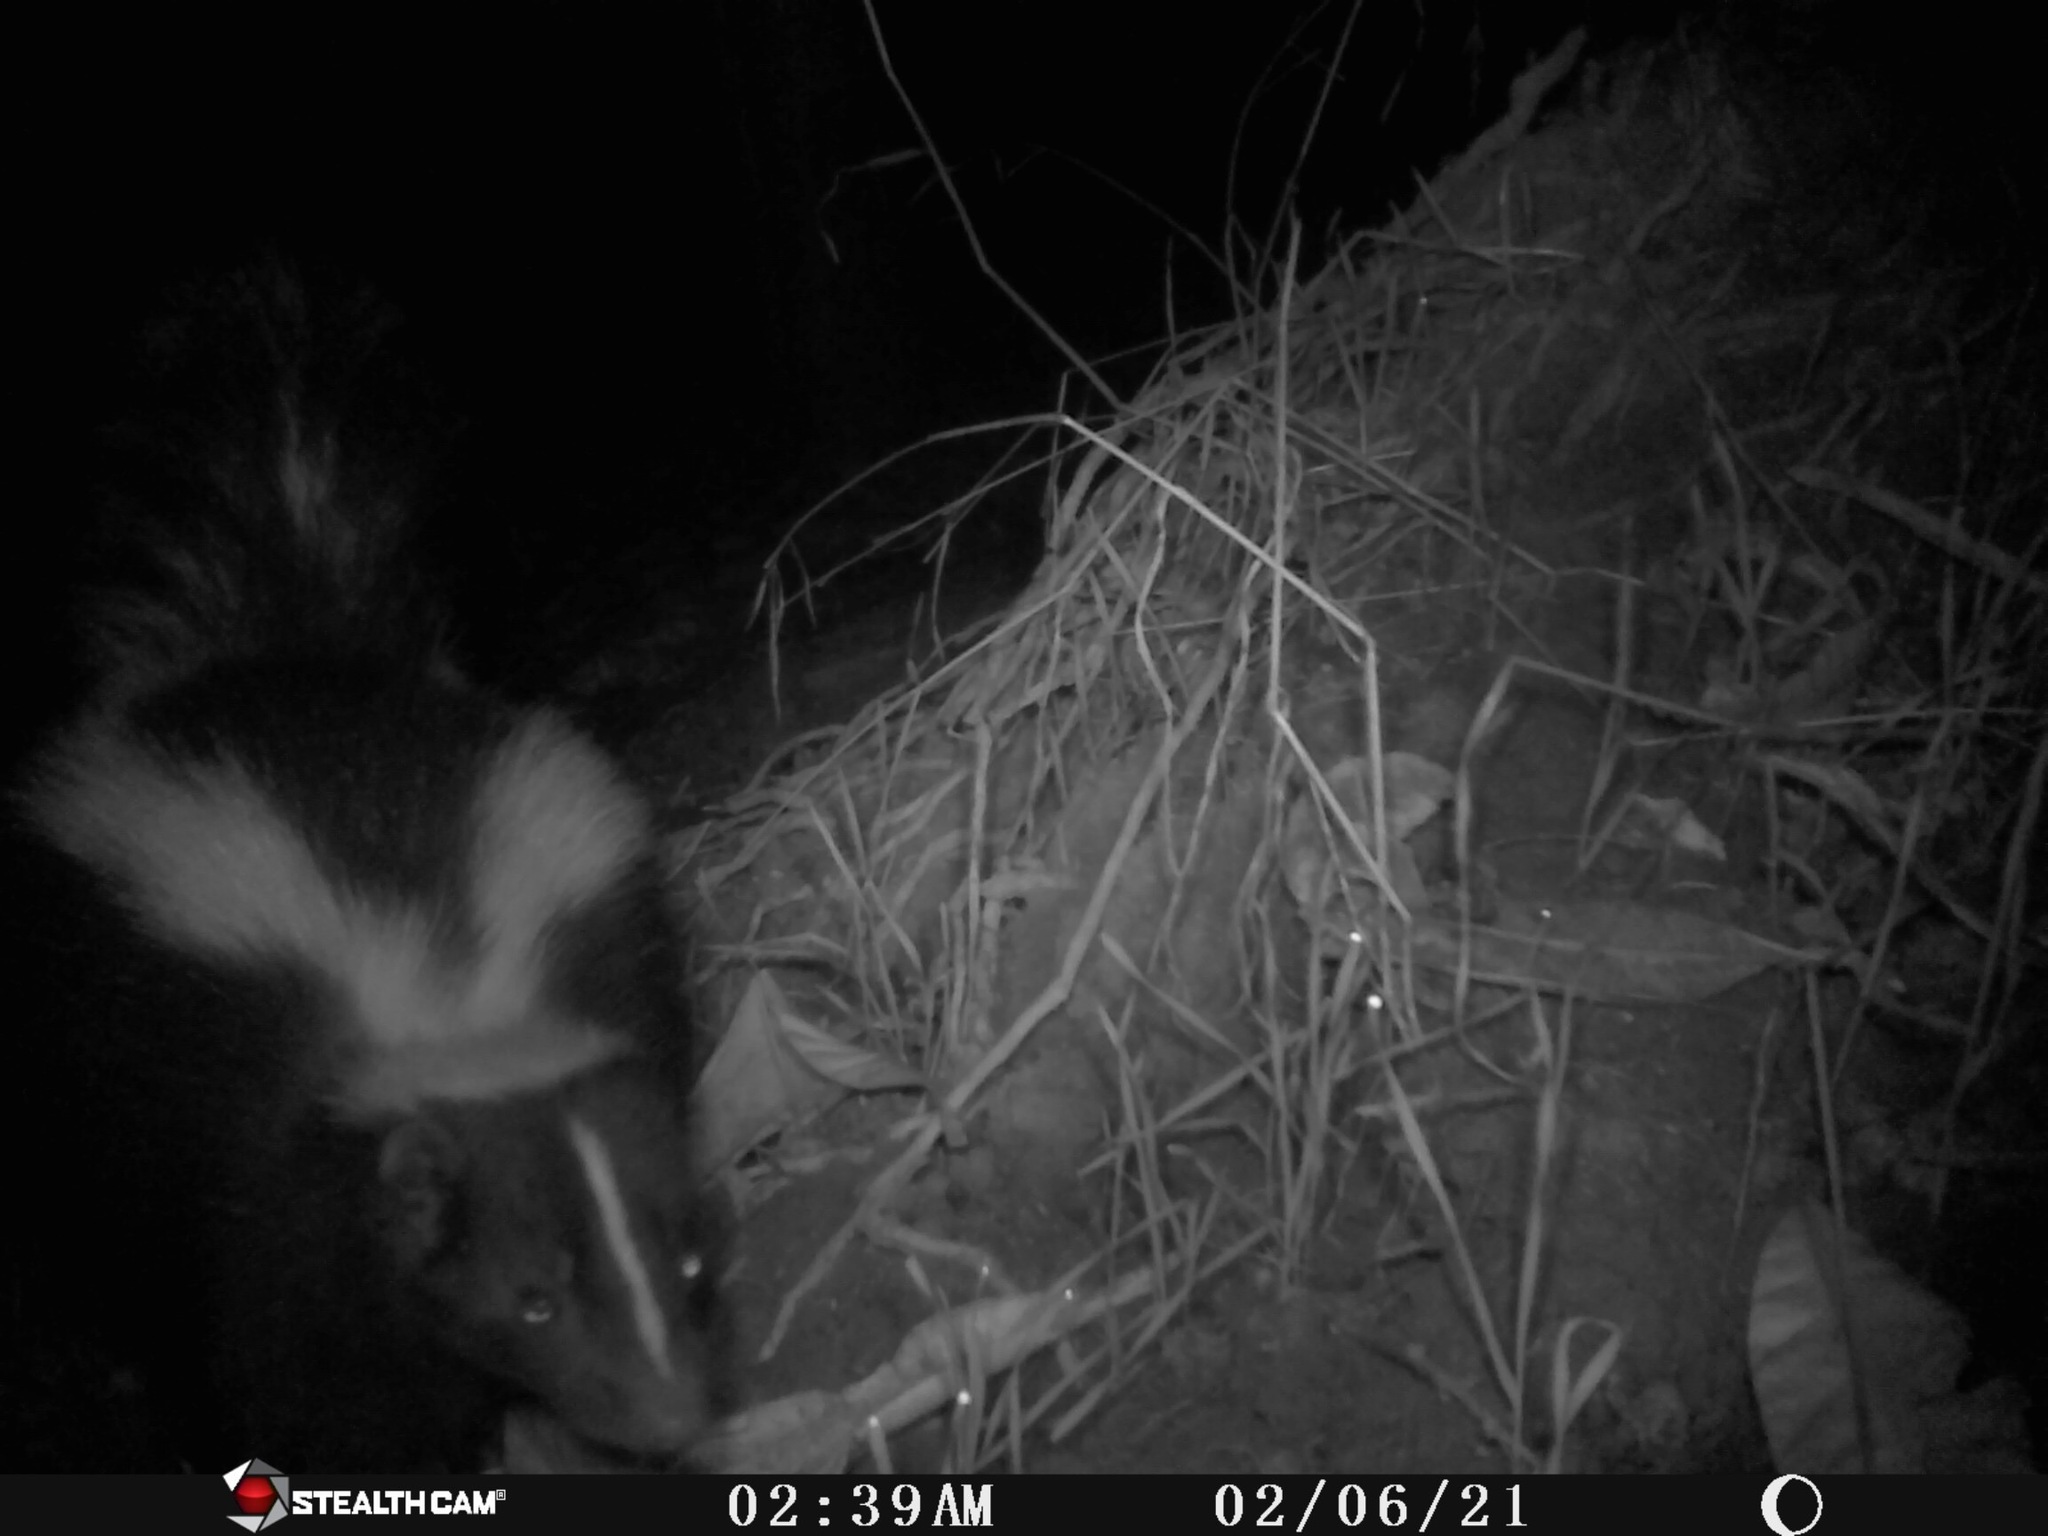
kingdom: Animalia
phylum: Chordata
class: Mammalia
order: Carnivora
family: Mephitidae
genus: Mephitis
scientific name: Mephitis mephitis
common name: Striped skunk
